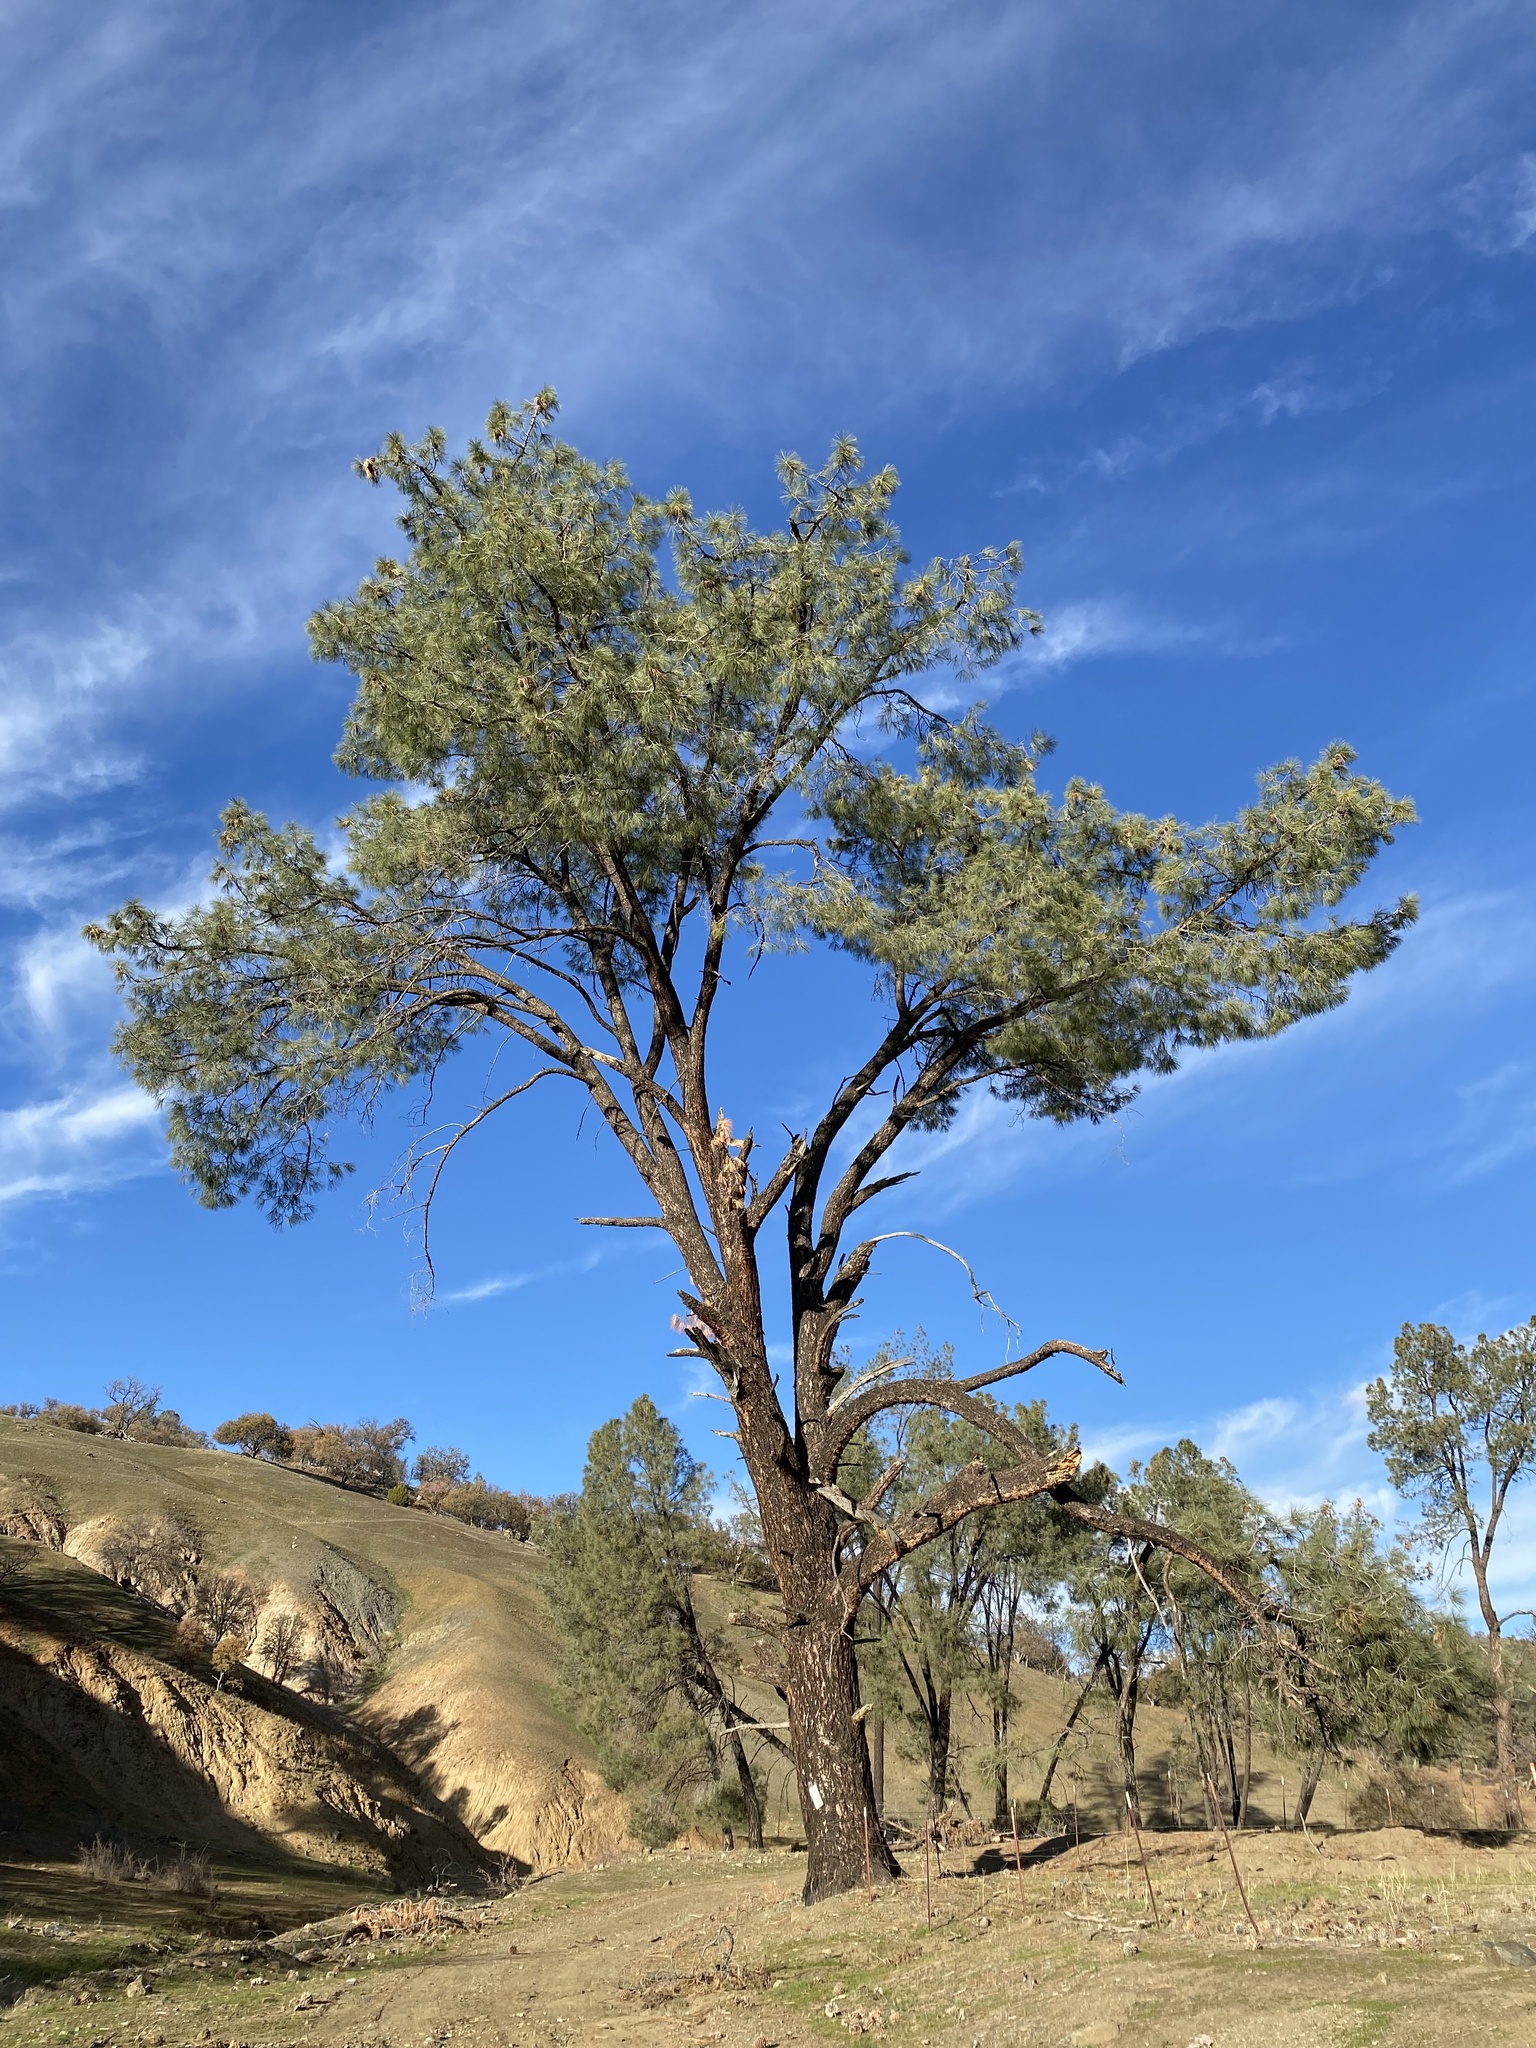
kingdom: Plantae
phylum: Tracheophyta
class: Pinopsida
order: Pinales
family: Pinaceae
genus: Pinus
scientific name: Pinus sabiniana
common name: Bull pine
